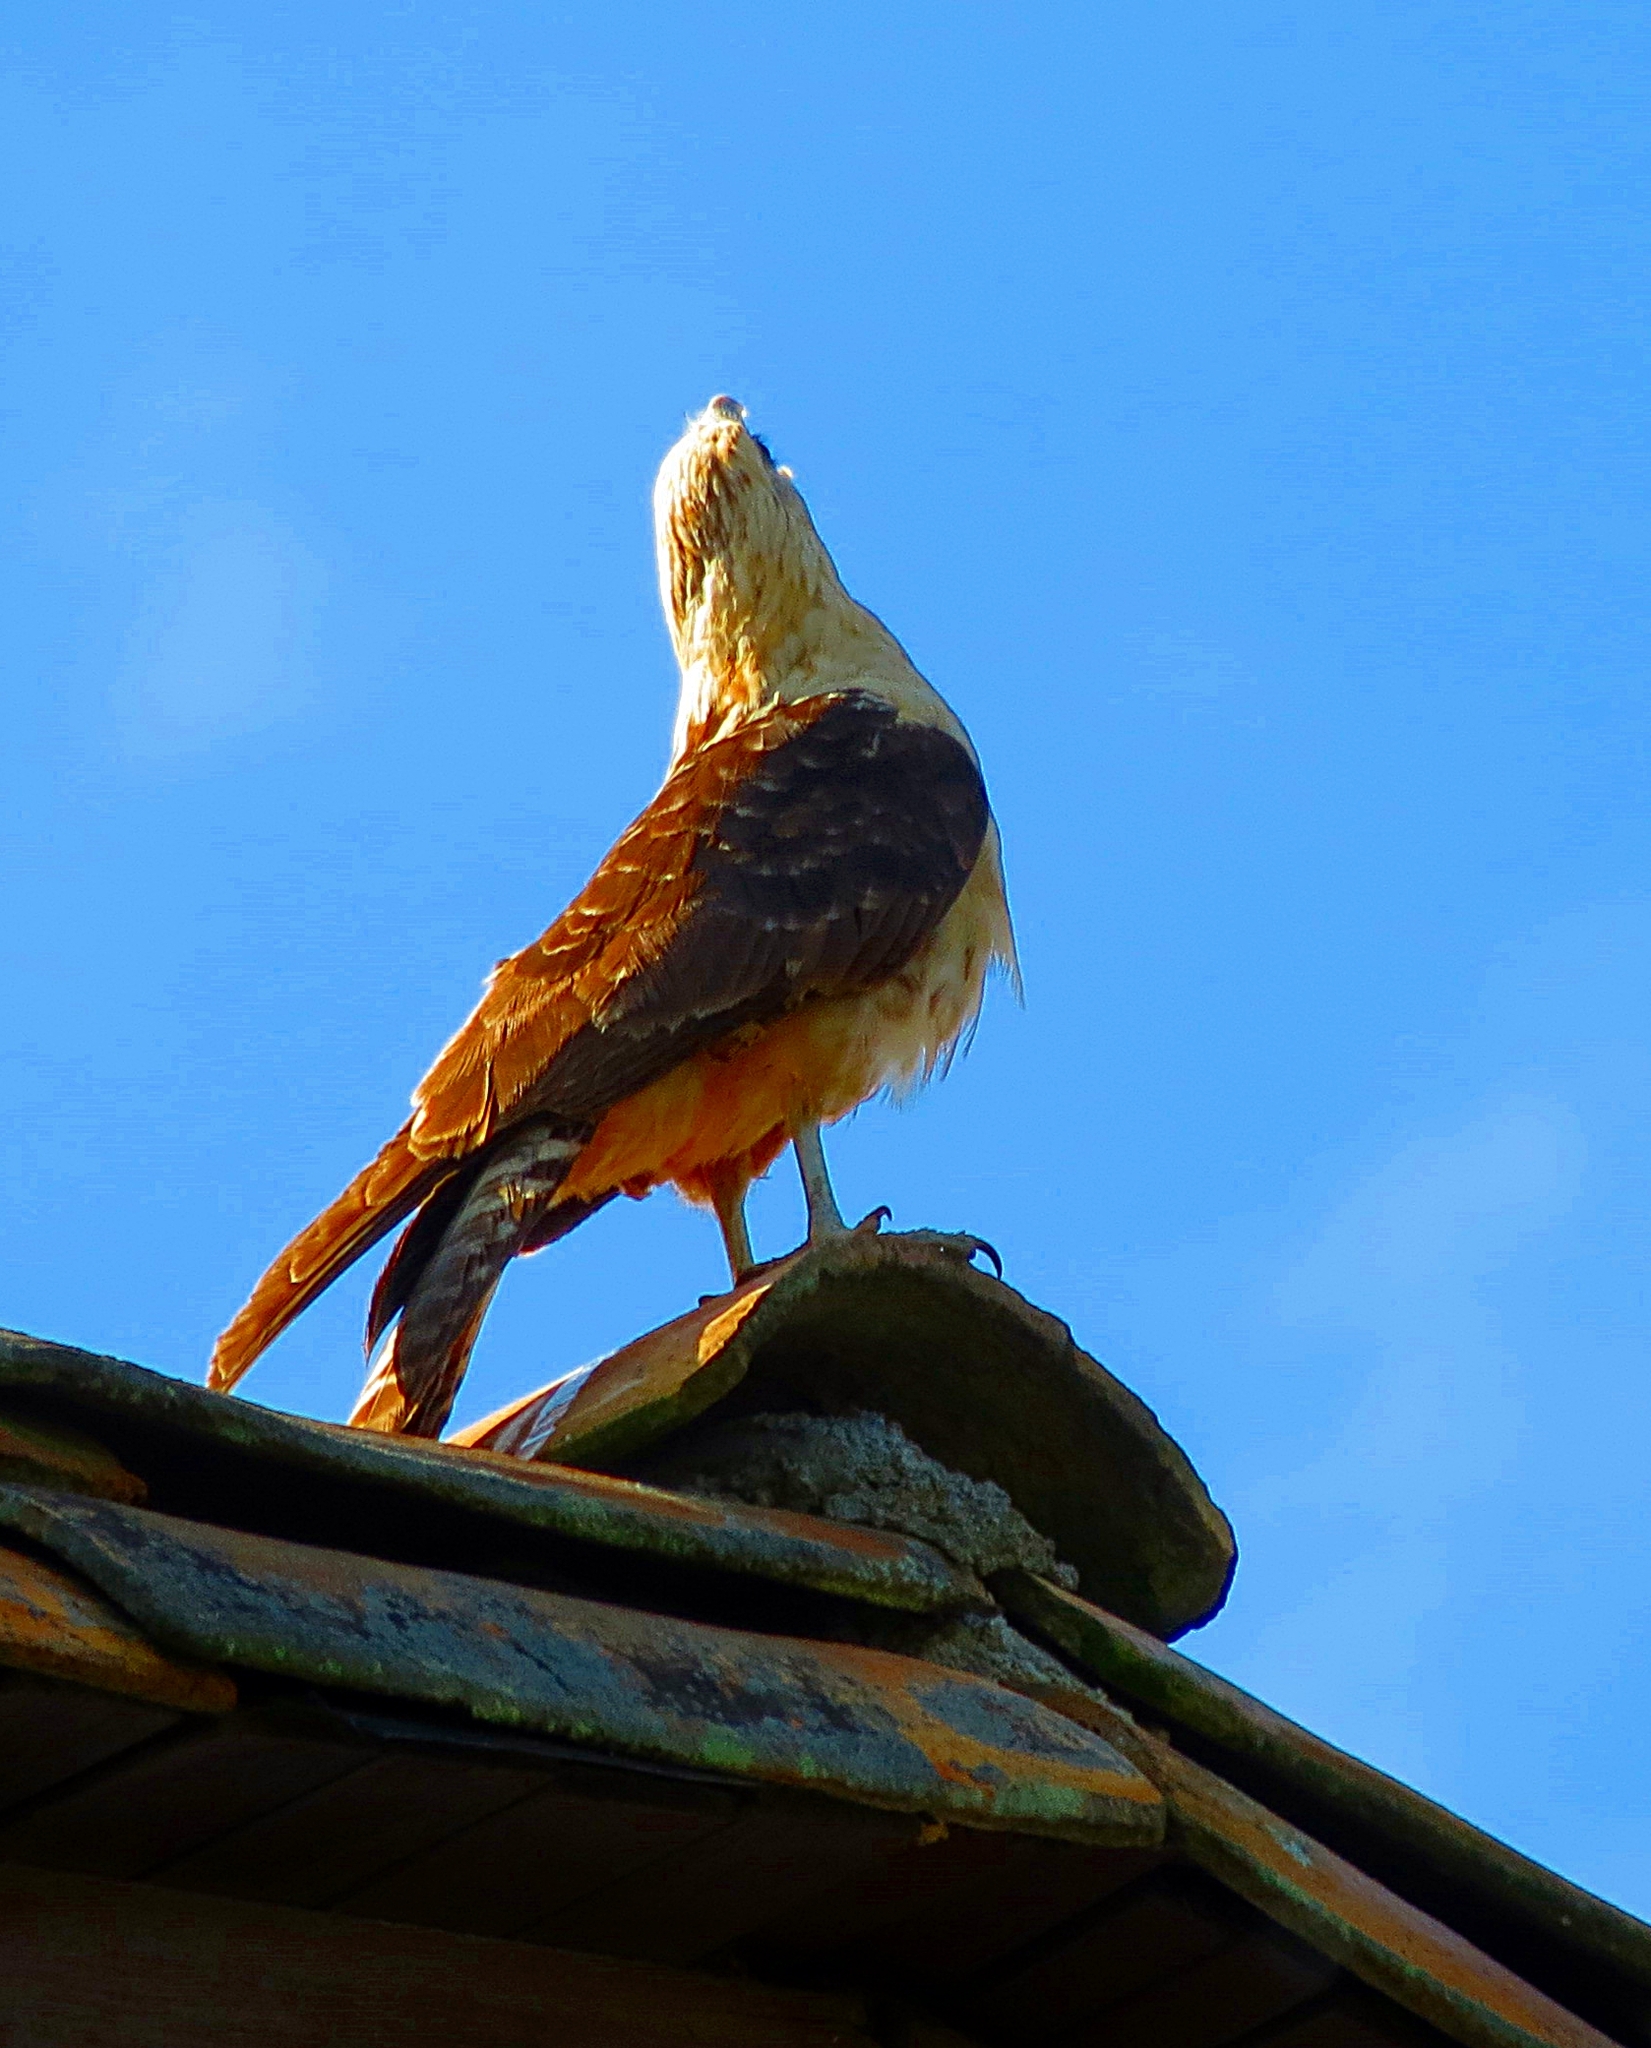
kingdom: Animalia
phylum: Chordata
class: Aves
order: Falconiformes
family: Falconidae
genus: Daptrius
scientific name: Daptrius
